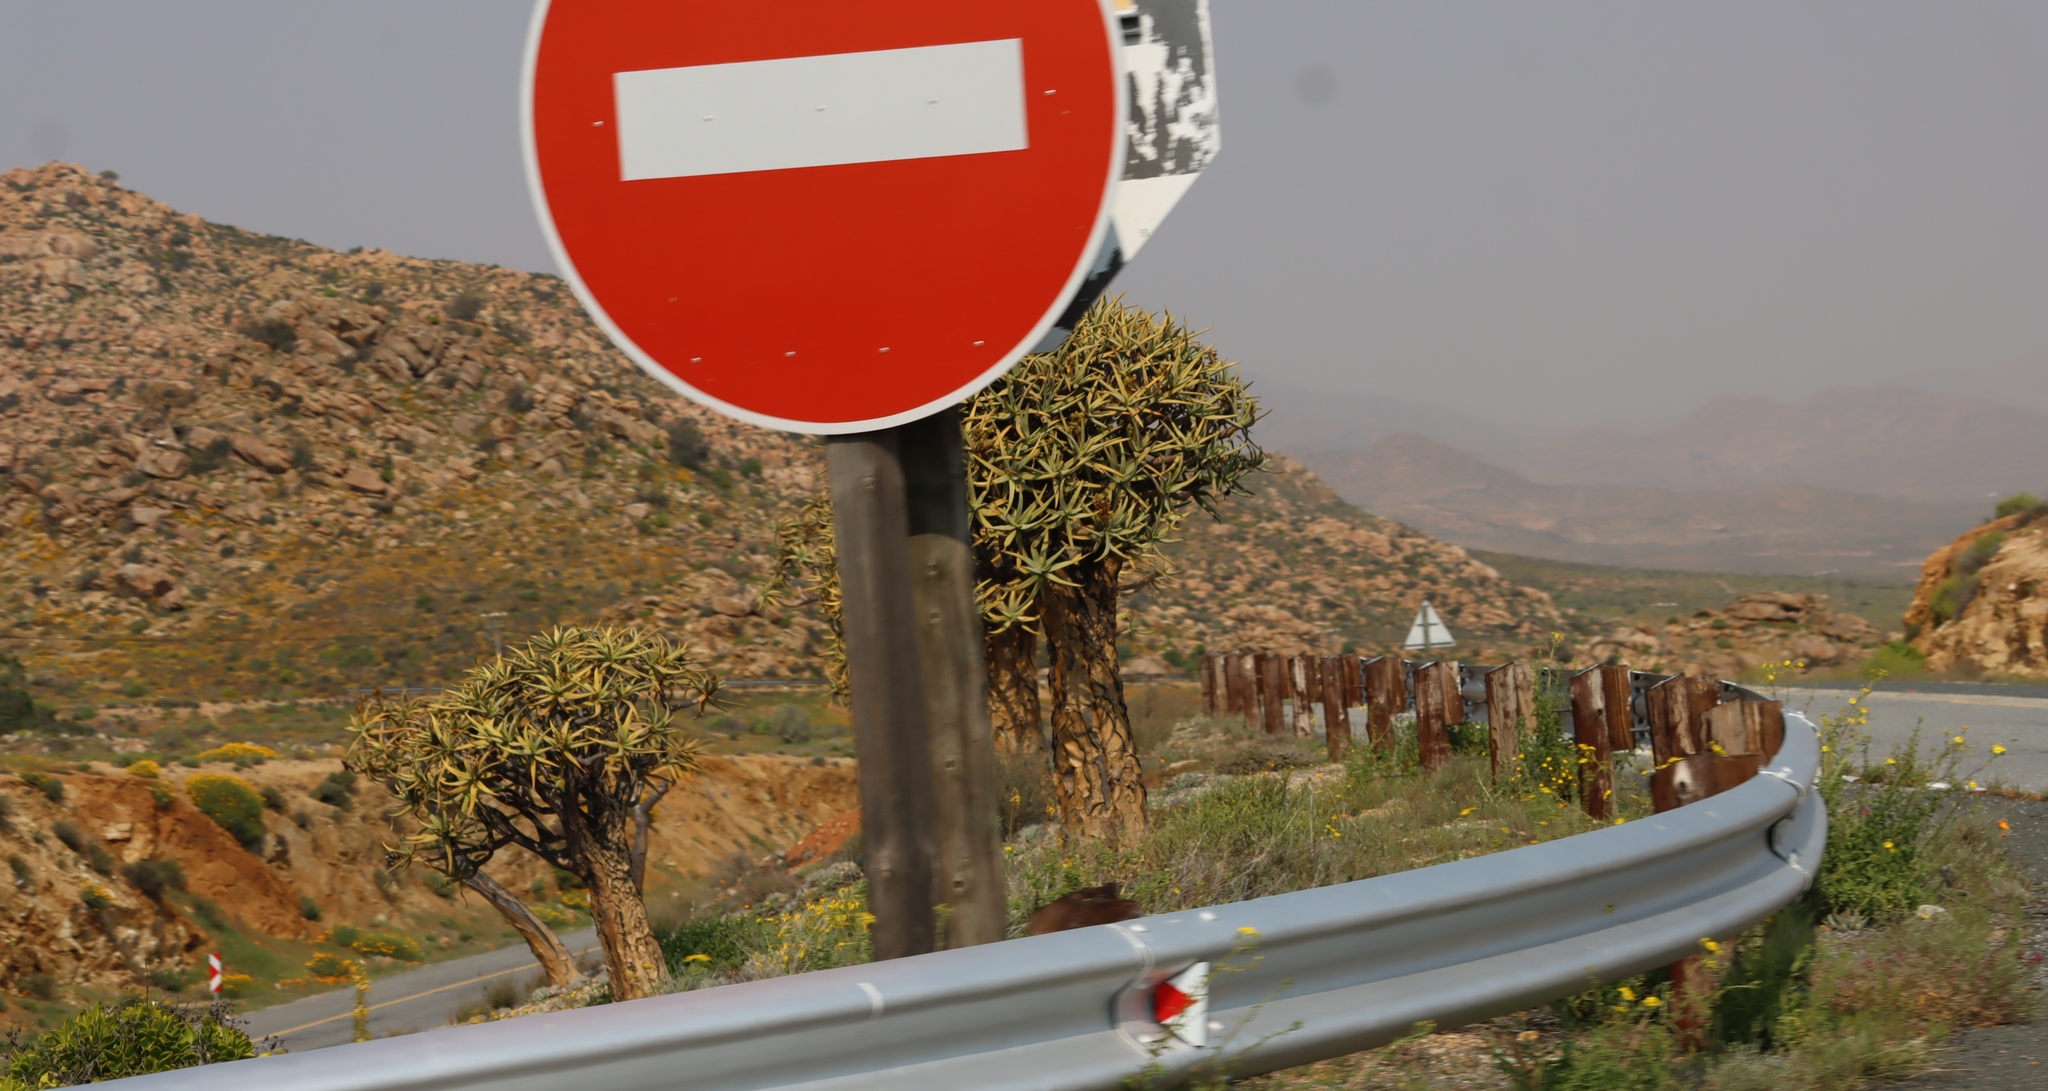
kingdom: Plantae
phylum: Tracheophyta
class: Liliopsida
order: Asparagales
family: Asphodelaceae
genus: Aloidendron
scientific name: Aloidendron dichotomum
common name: Quiver tree
